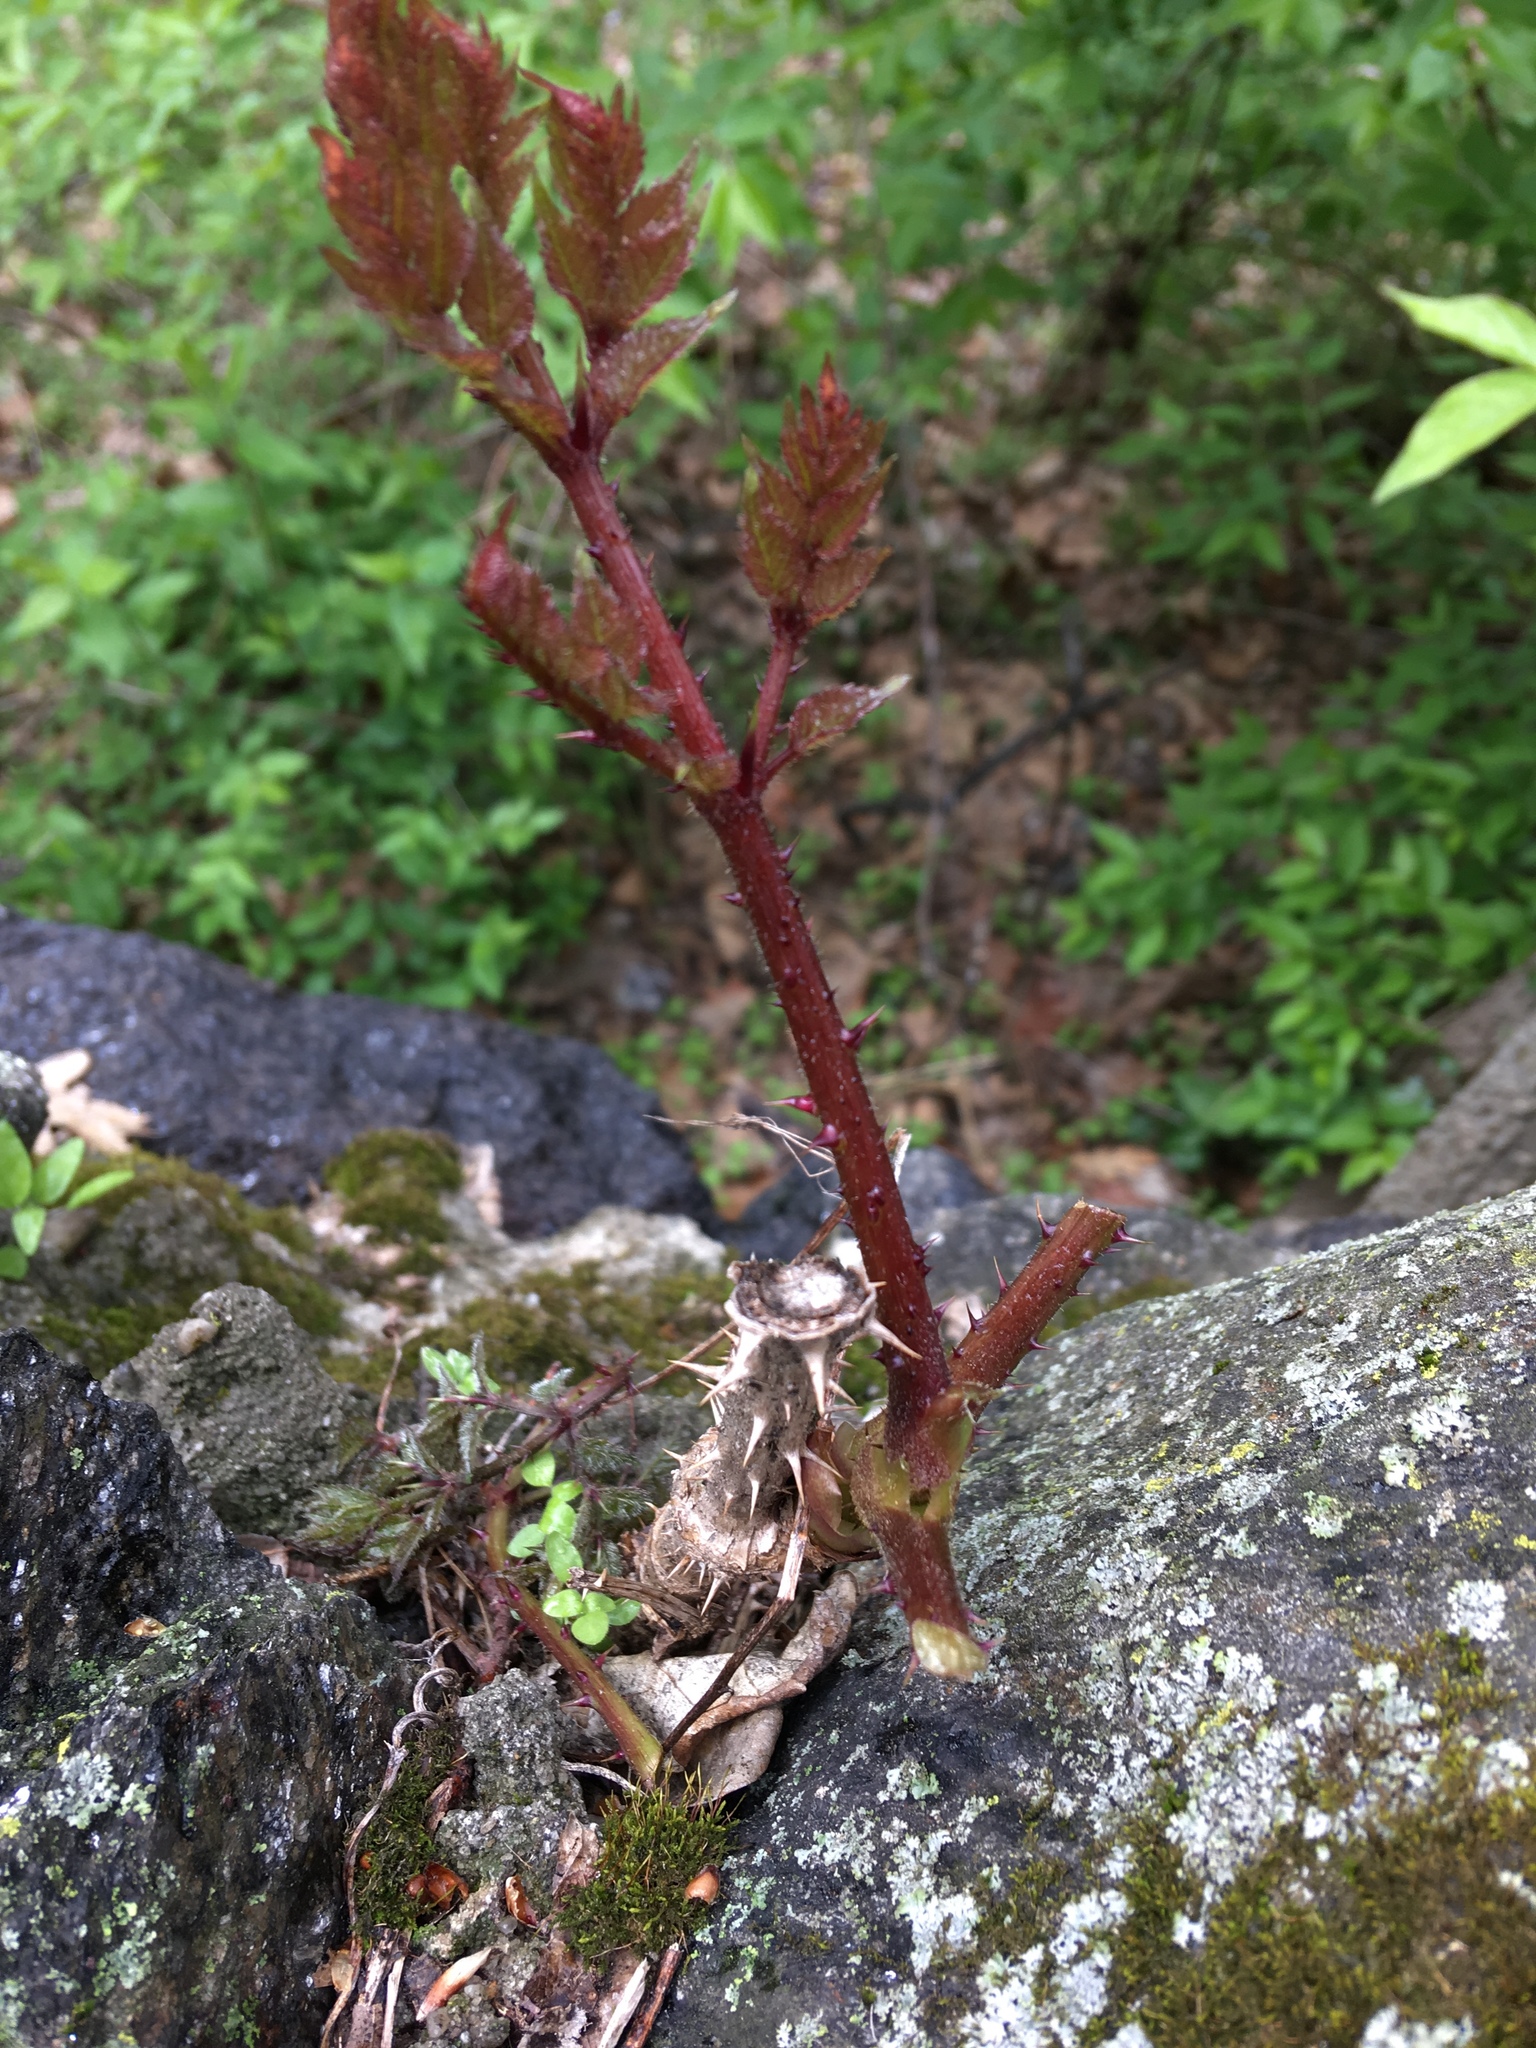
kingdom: Plantae
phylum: Tracheophyta
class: Magnoliopsida
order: Apiales
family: Araliaceae
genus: Aralia
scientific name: Aralia elata
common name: Japanese angelica-tree
